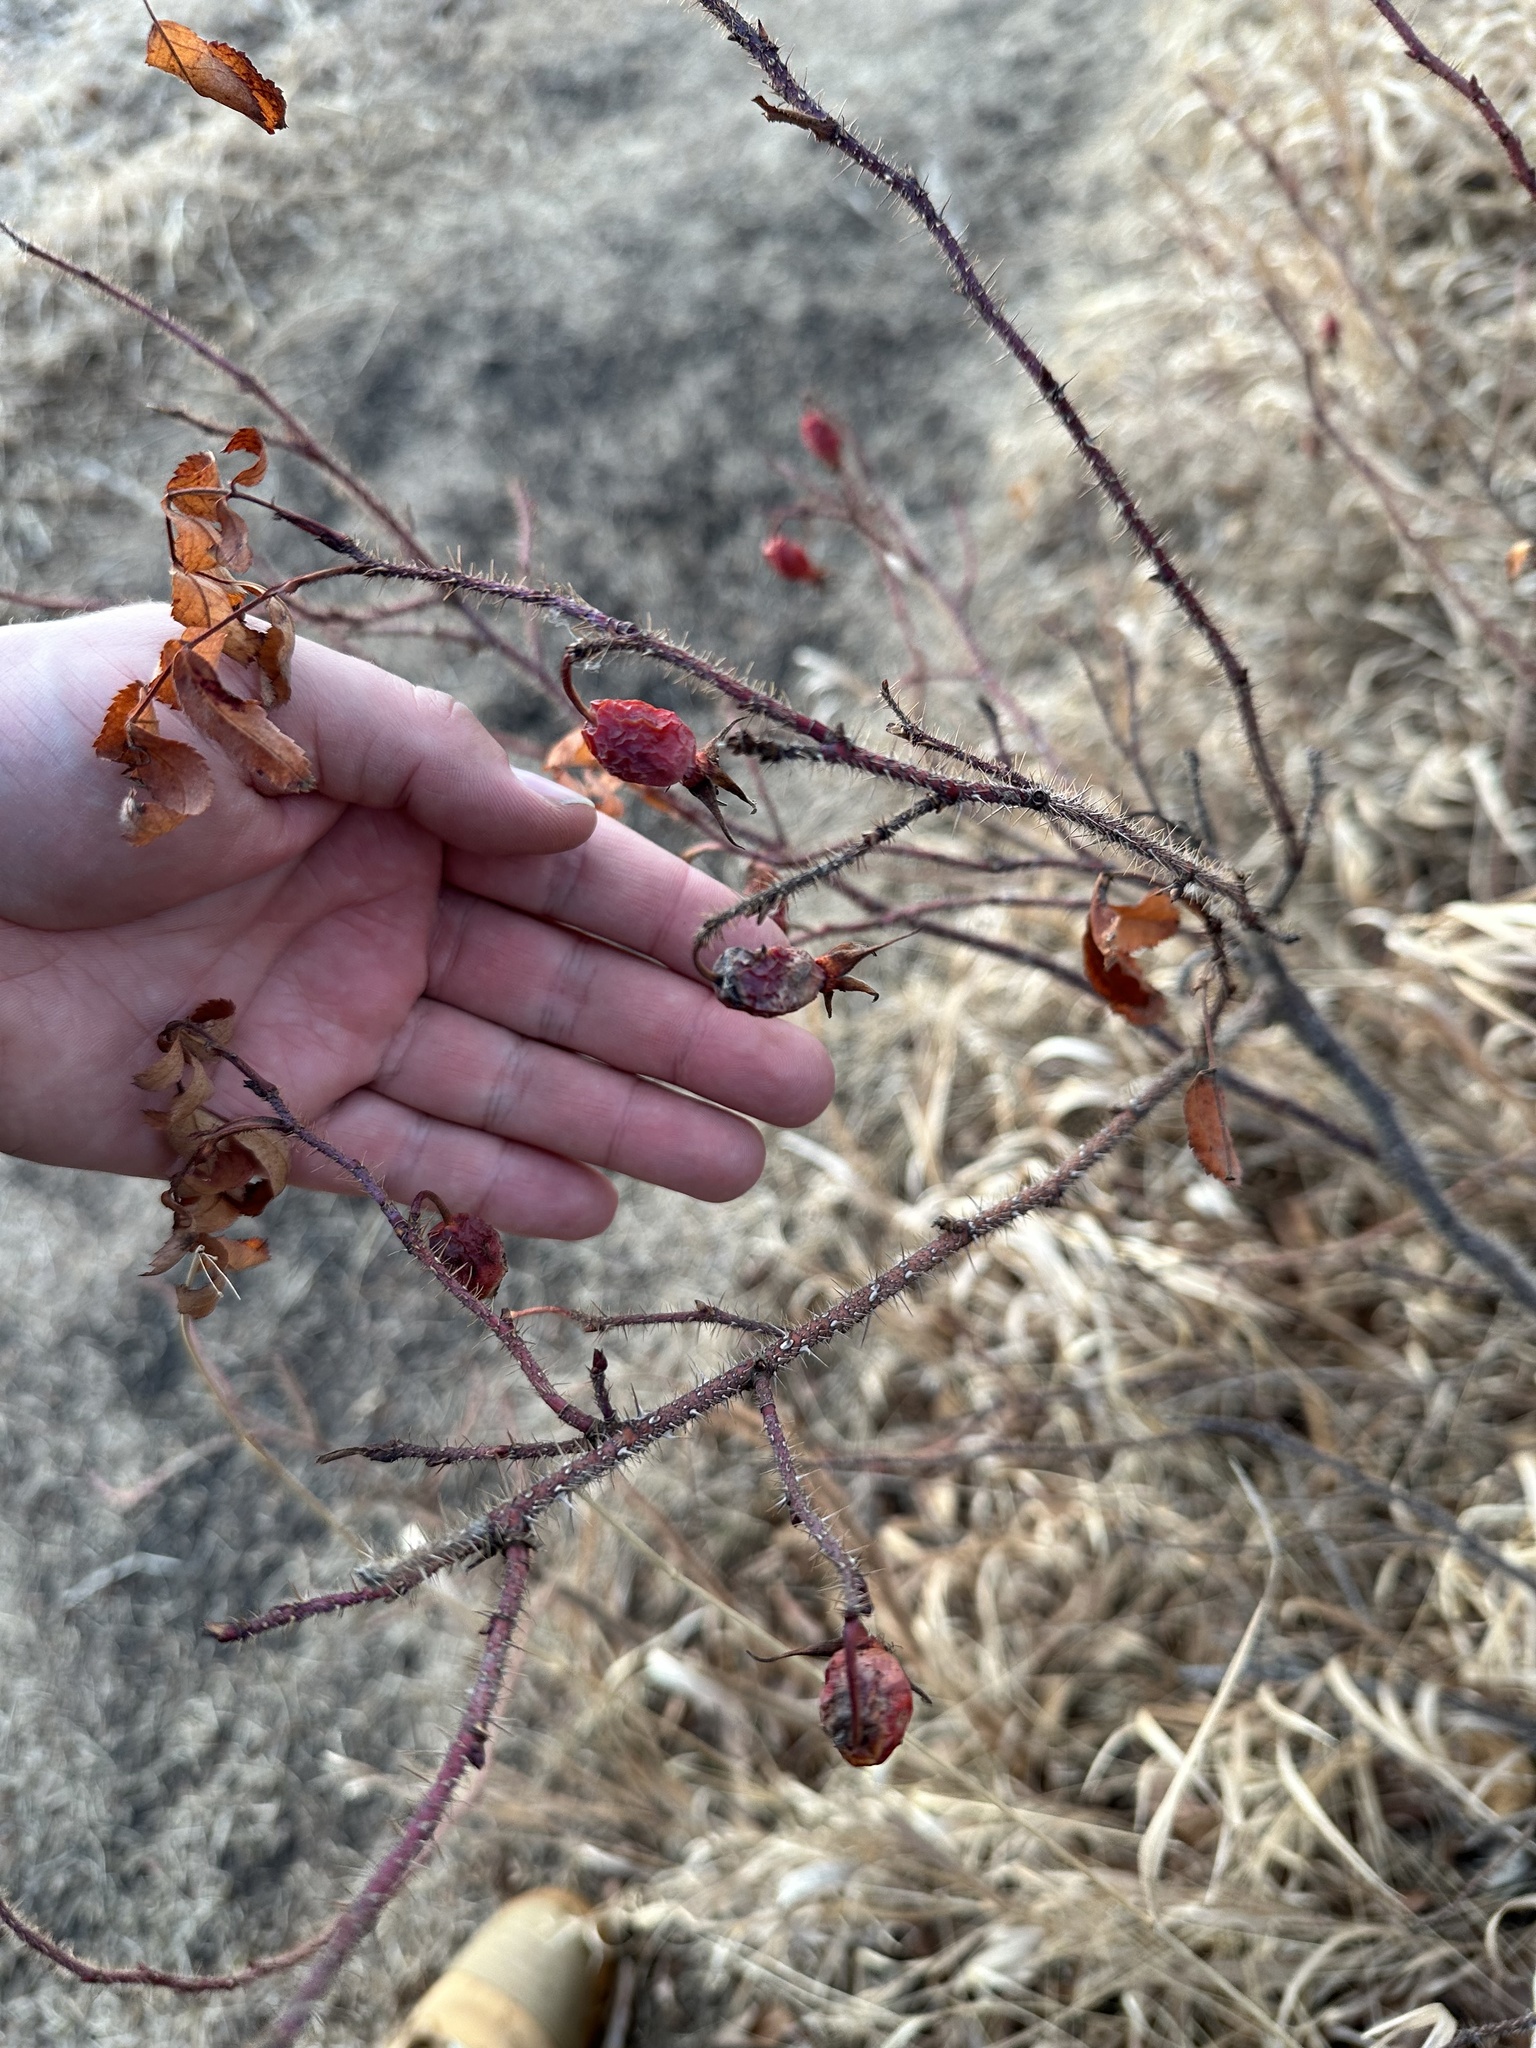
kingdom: Plantae
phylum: Tracheophyta
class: Magnoliopsida
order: Rosales
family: Rosaceae
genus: Rosa
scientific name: Rosa acicularis
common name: Prickly rose
